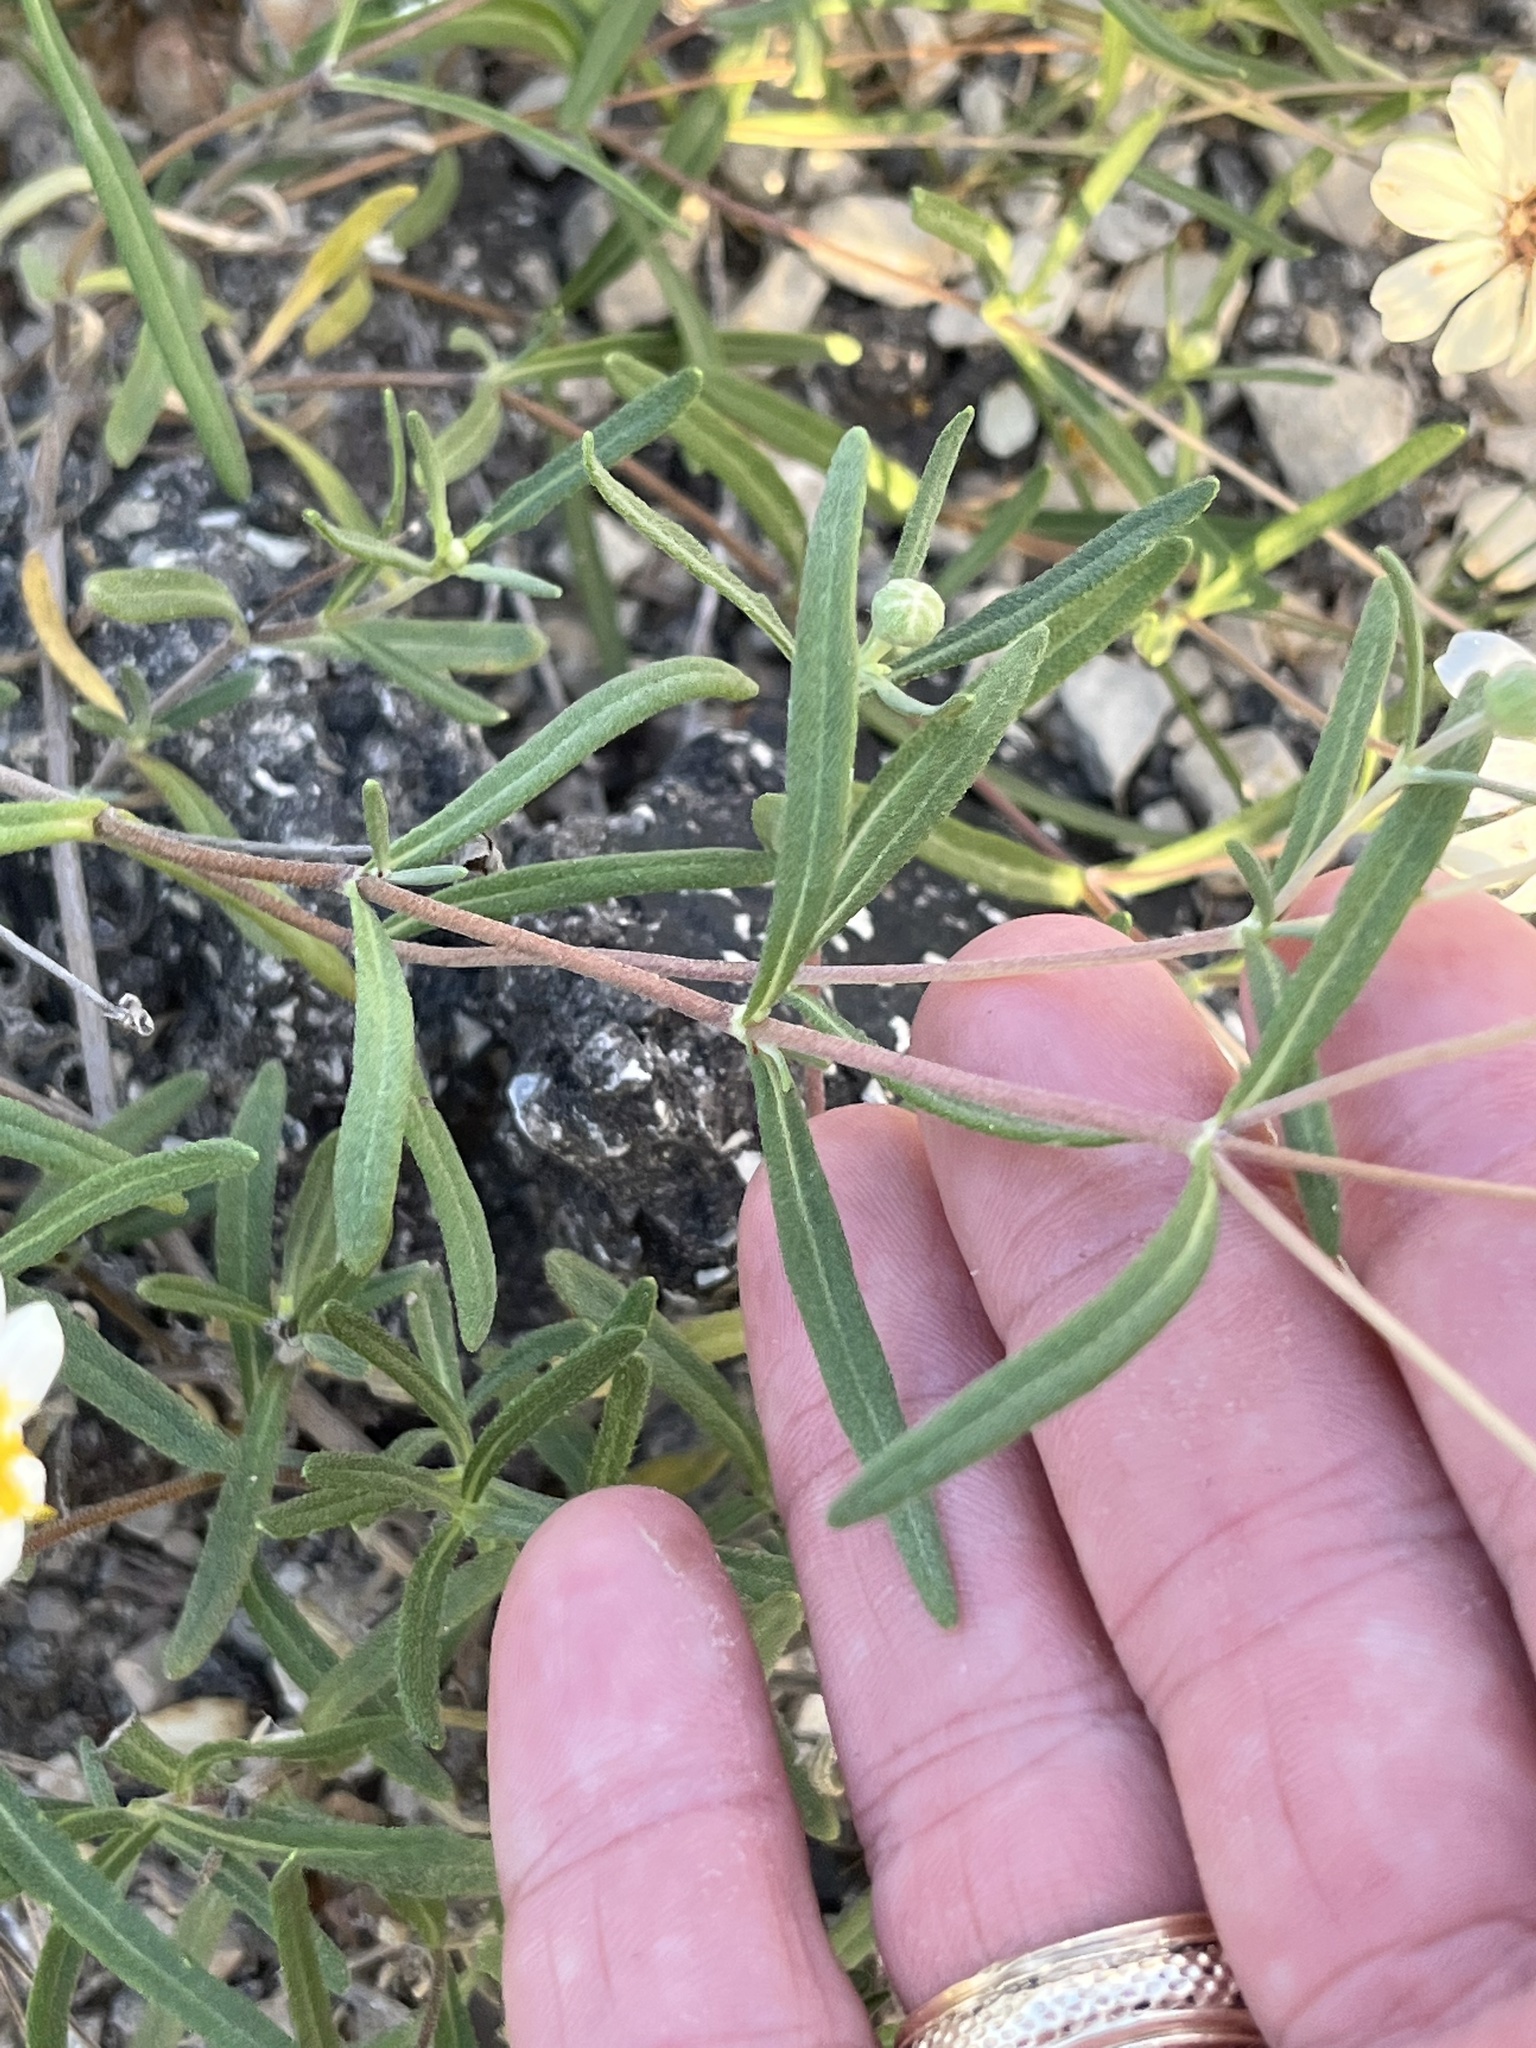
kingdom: Plantae
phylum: Tracheophyta
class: Magnoliopsida
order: Asterales
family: Asteraceae
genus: Melampodium
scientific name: Melampodium leucanthum
